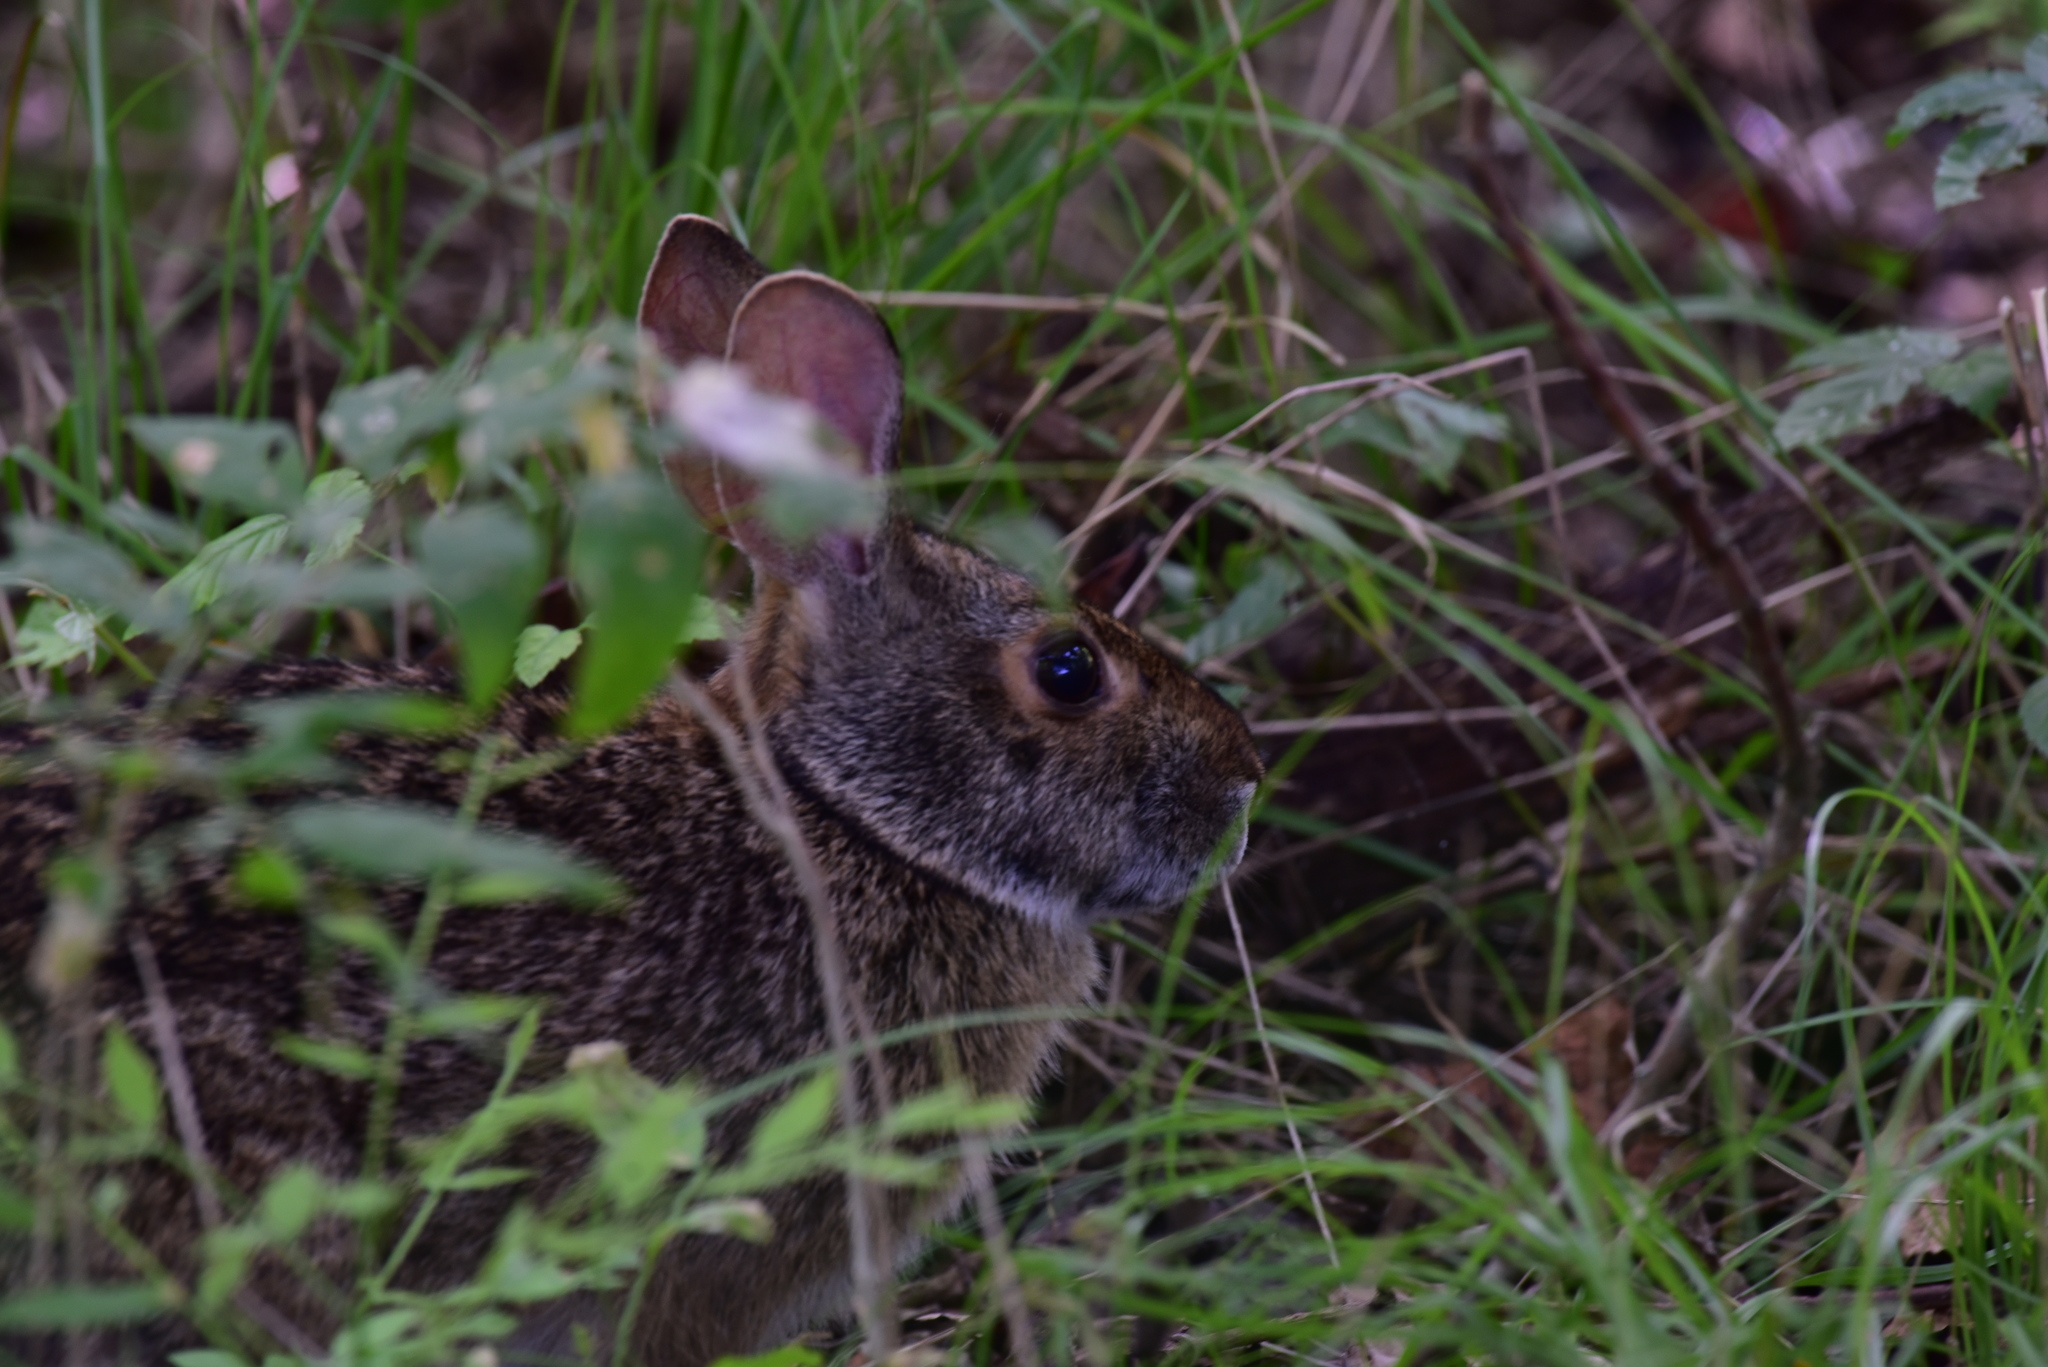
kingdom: Animalia
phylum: Chordata
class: Mammalia
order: Lagomorpha
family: Leporidae
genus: Sylvilagus
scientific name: Sylvilagus aquaticus
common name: Swamp rabbit
